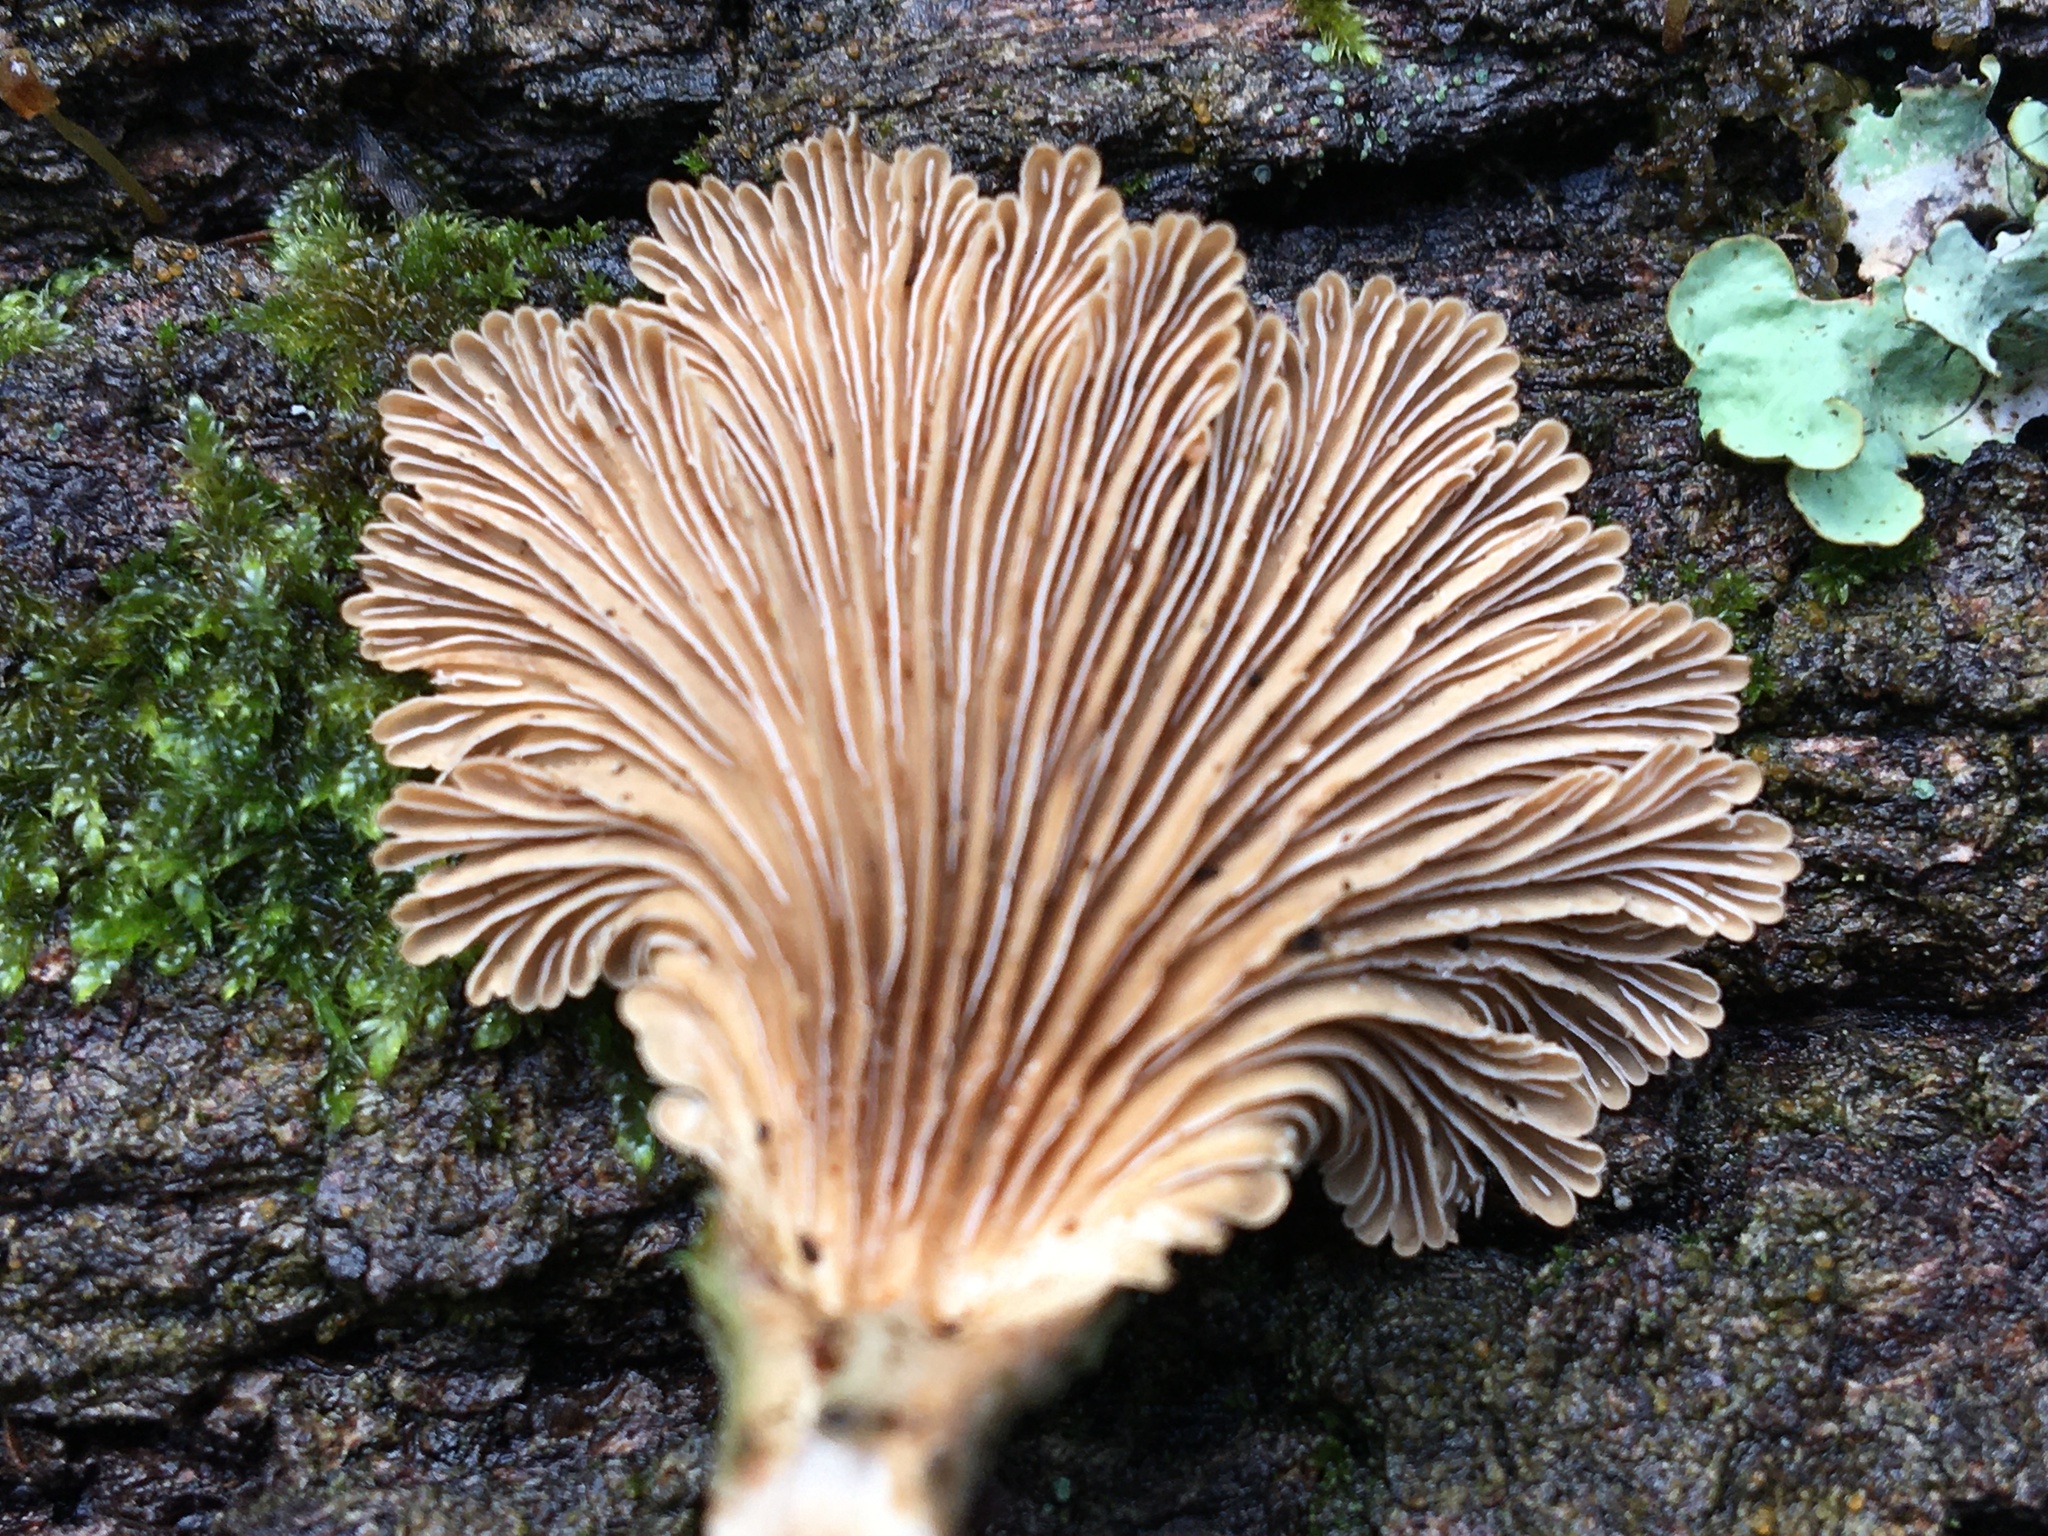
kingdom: Fungi
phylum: Basidiomycota
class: Agaricomycetes
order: Agaricales
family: Schizophyllaceae
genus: Schizophyllum
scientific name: Schizophyllum commune
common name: Common porecrust
